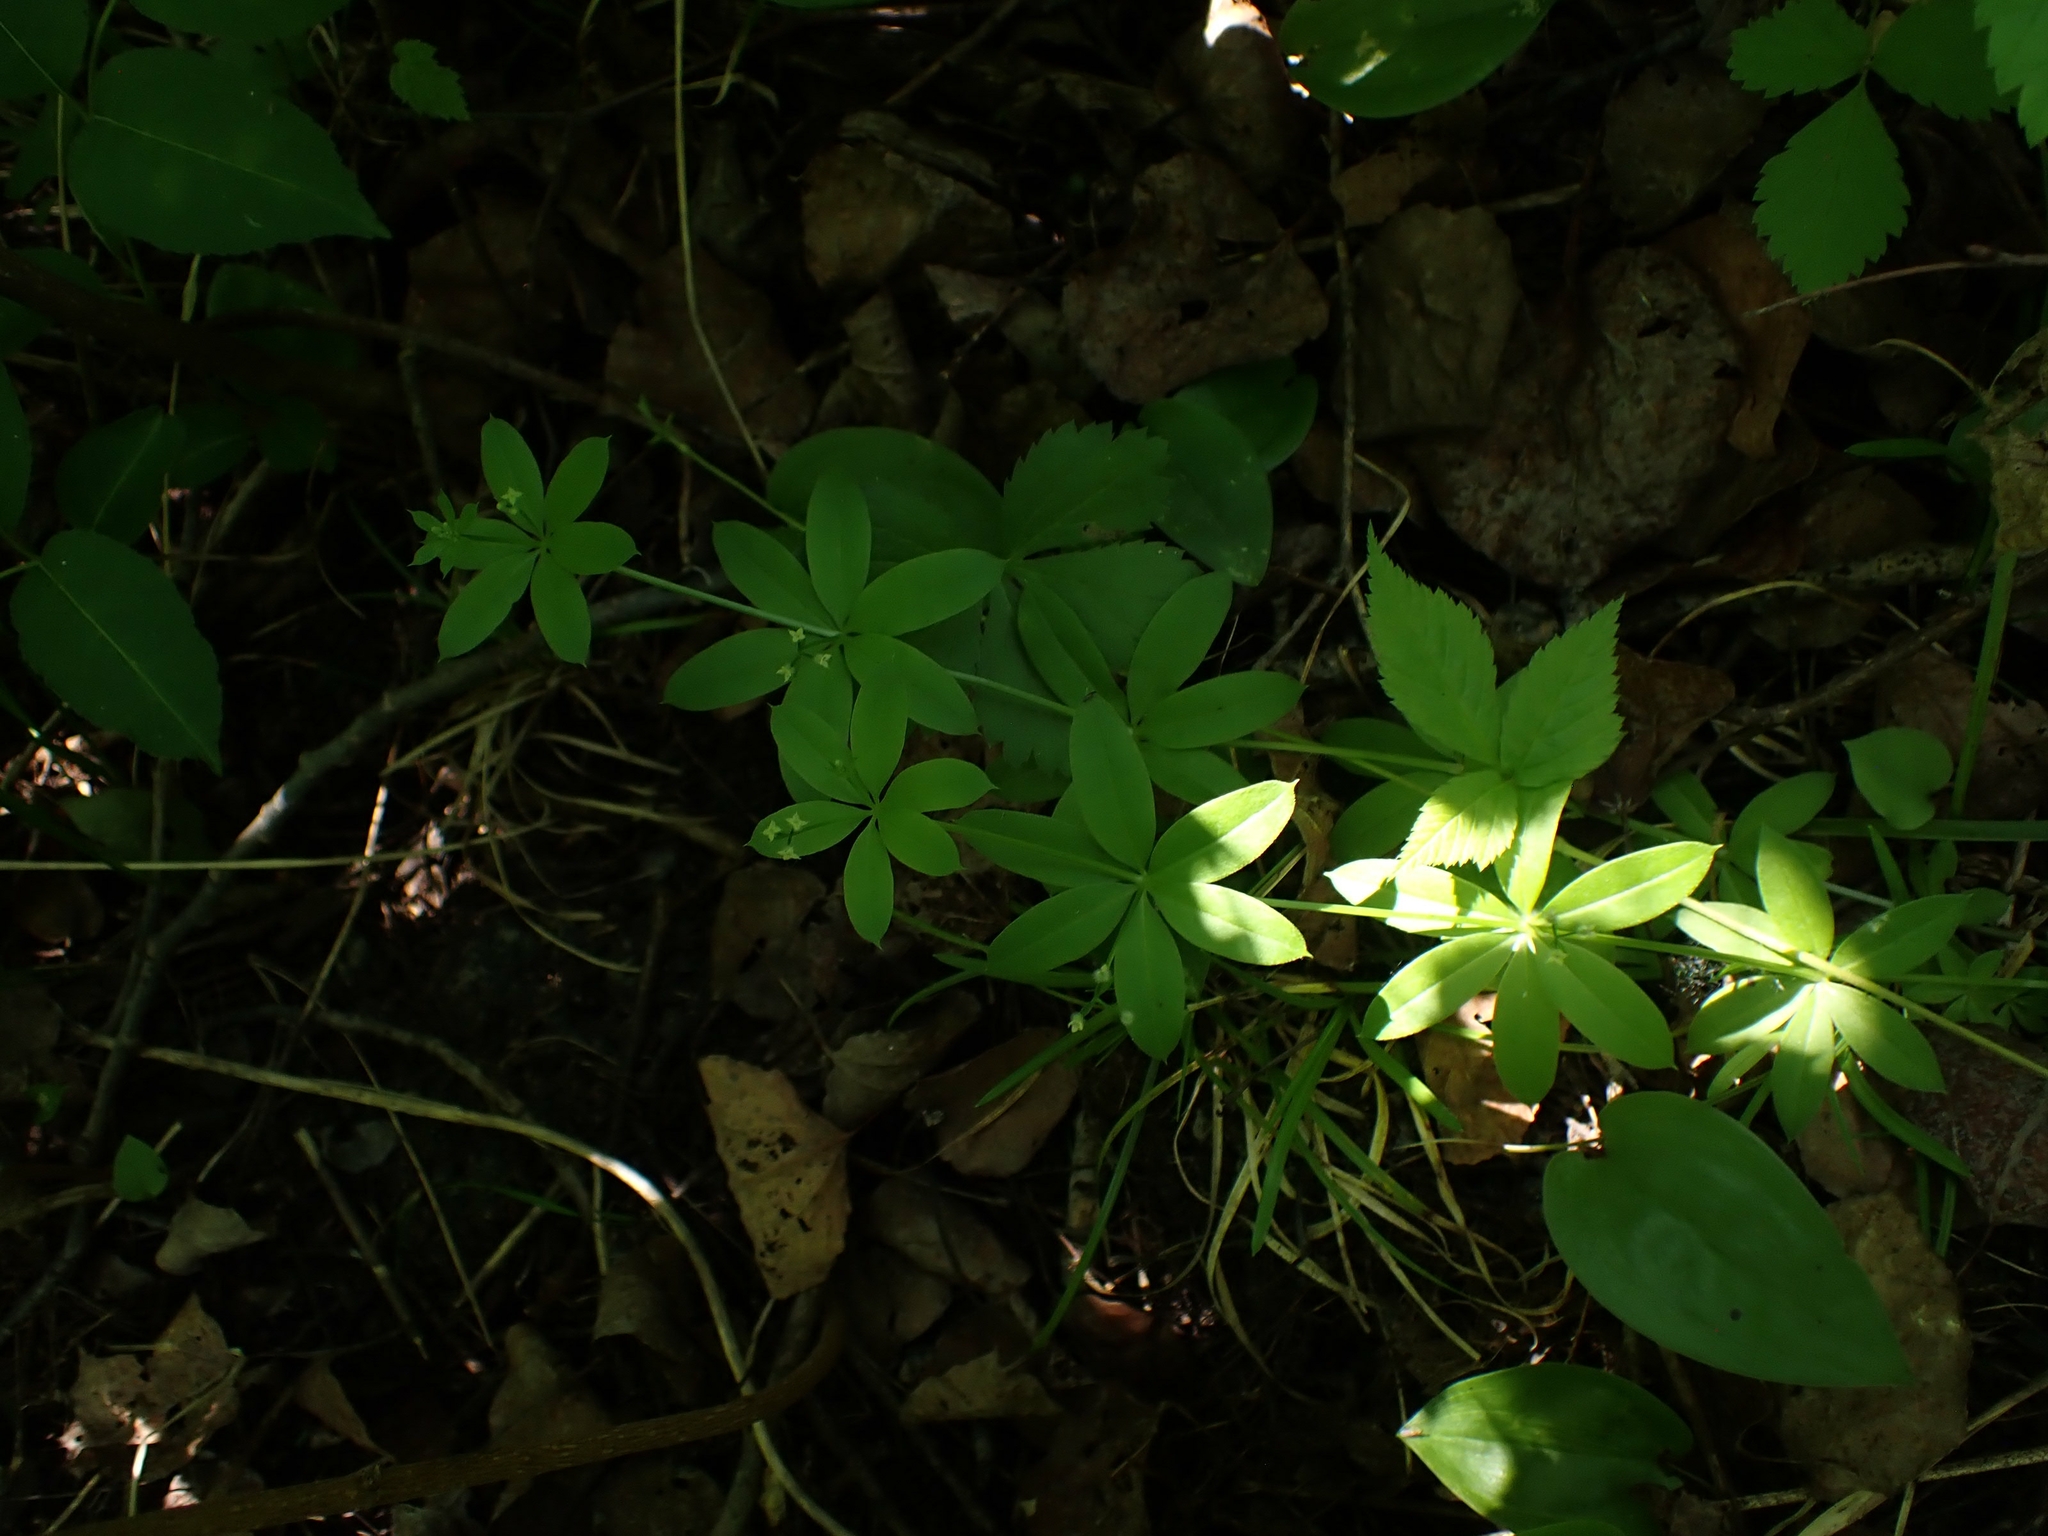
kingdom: Plantae
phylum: Tracheophyta
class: Magnoliopsida
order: Gentianales
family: Rubiaceae
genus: Galium
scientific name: Galium triflorum
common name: Fragrant bedstraw
